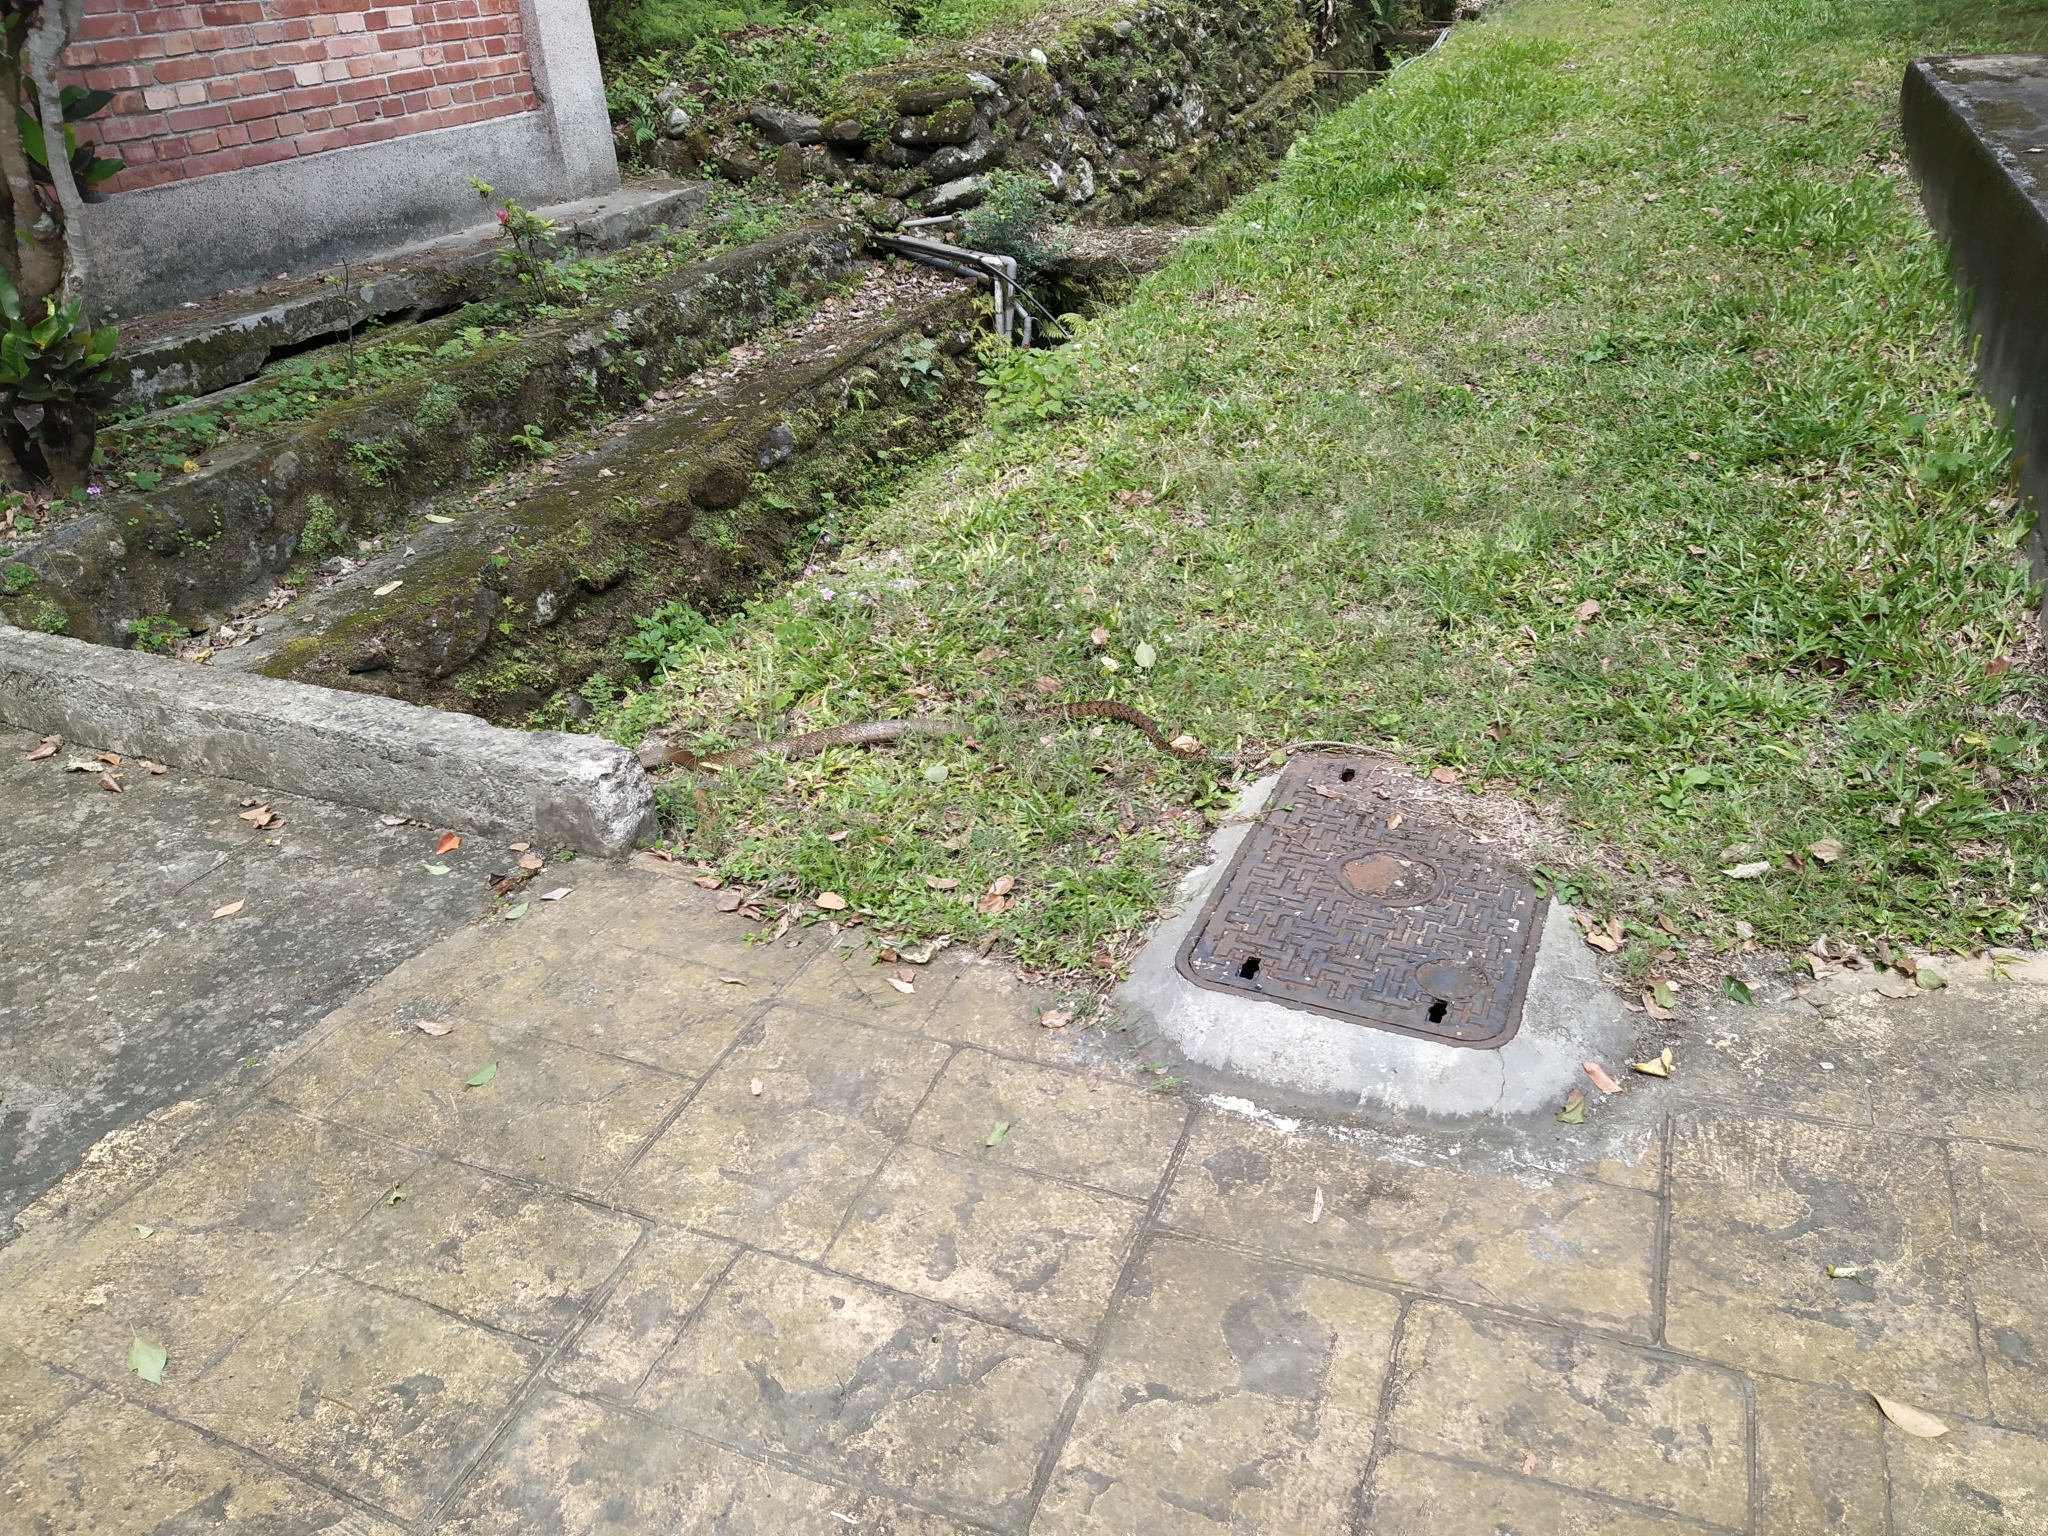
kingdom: Animalia
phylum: Chordata
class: Squamata
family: Colubridae
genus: Ptyas
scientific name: Ptyas mucosa
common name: Oriental ratsnake
